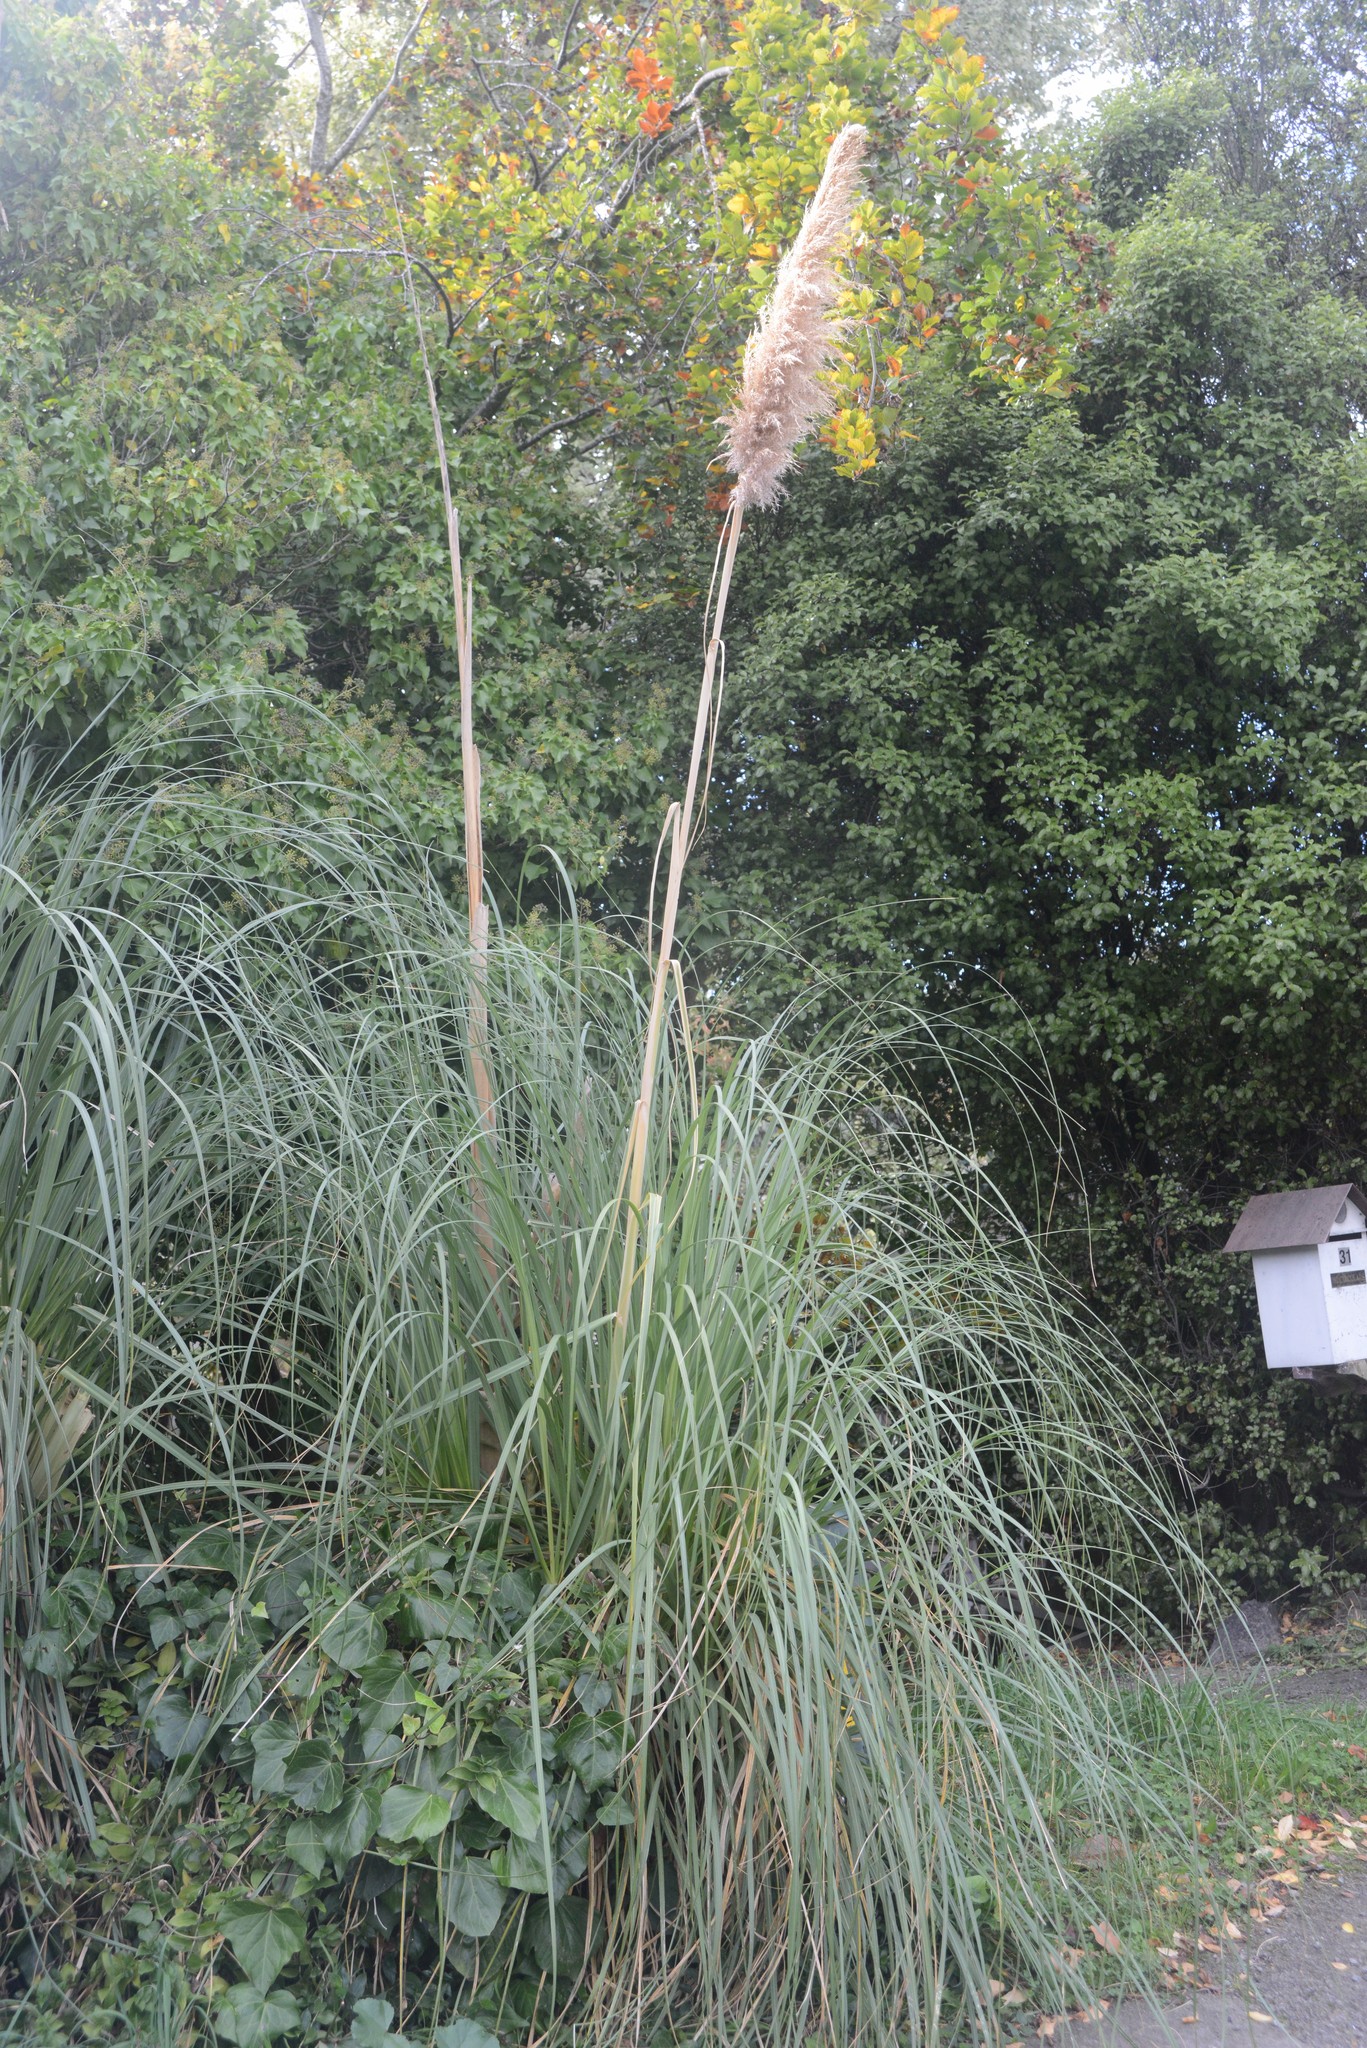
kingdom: Plantae
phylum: Tracheophyta
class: Liliopsida
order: Poales
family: Poaceae
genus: Cortaderia
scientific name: Cortaderia selloana
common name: Uruguayan pampas grass
